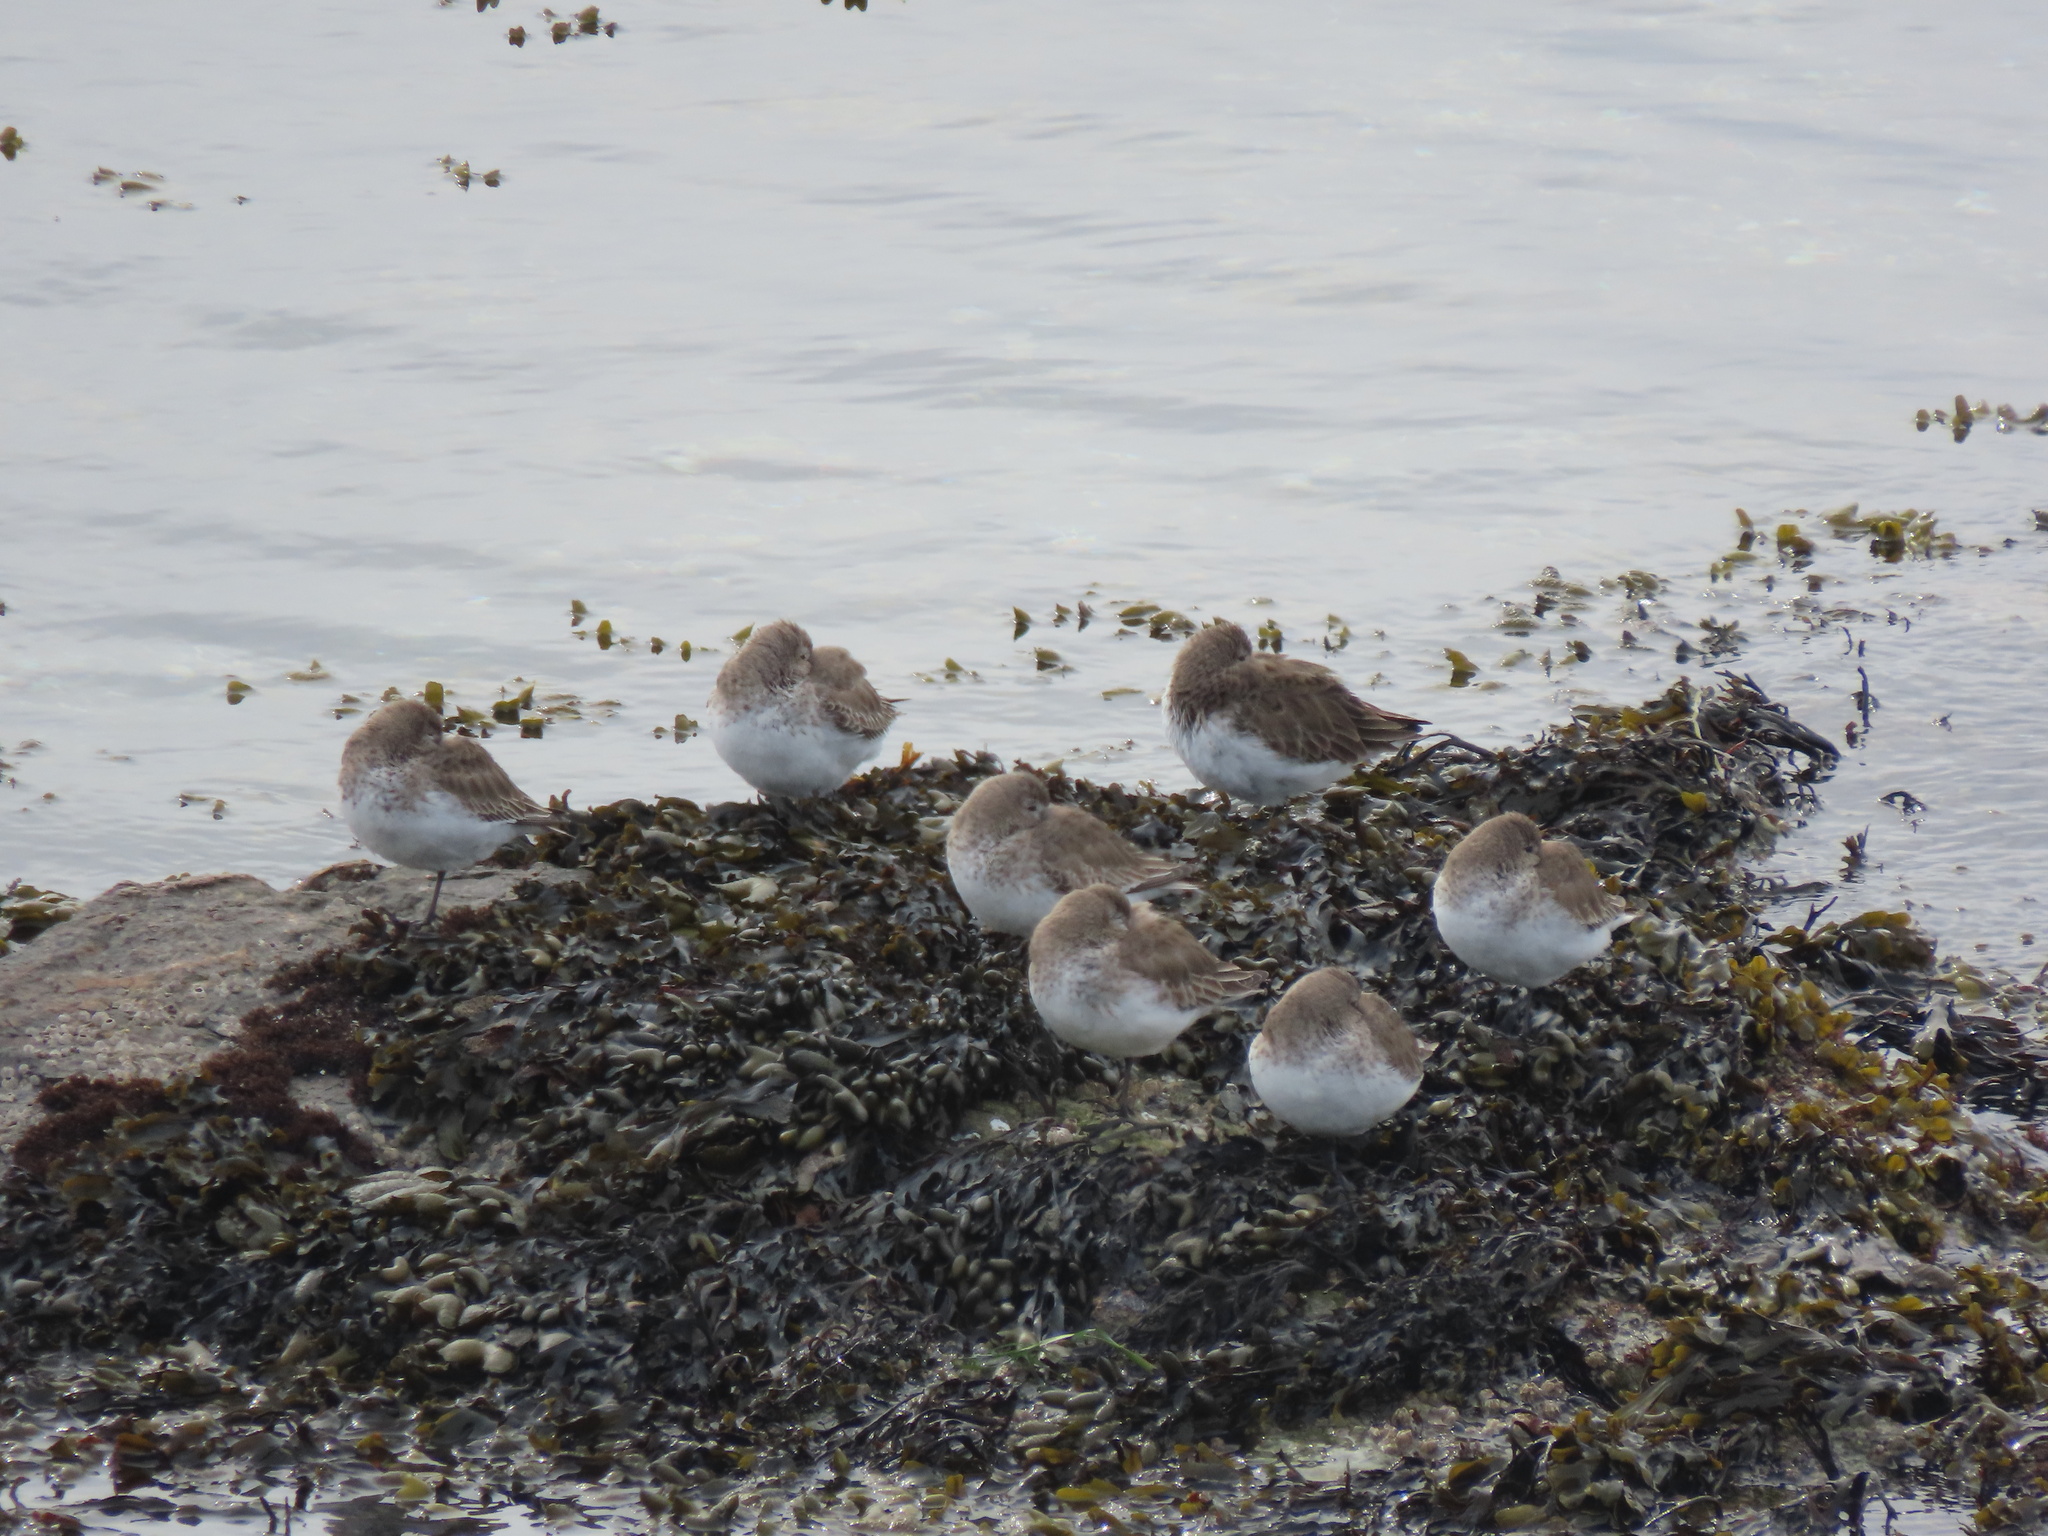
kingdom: Animalia
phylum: Chordata
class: Aves
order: Charadriiformes
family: Scolopacidae
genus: Calidris
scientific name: Calidris alpina
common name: Dunlin
